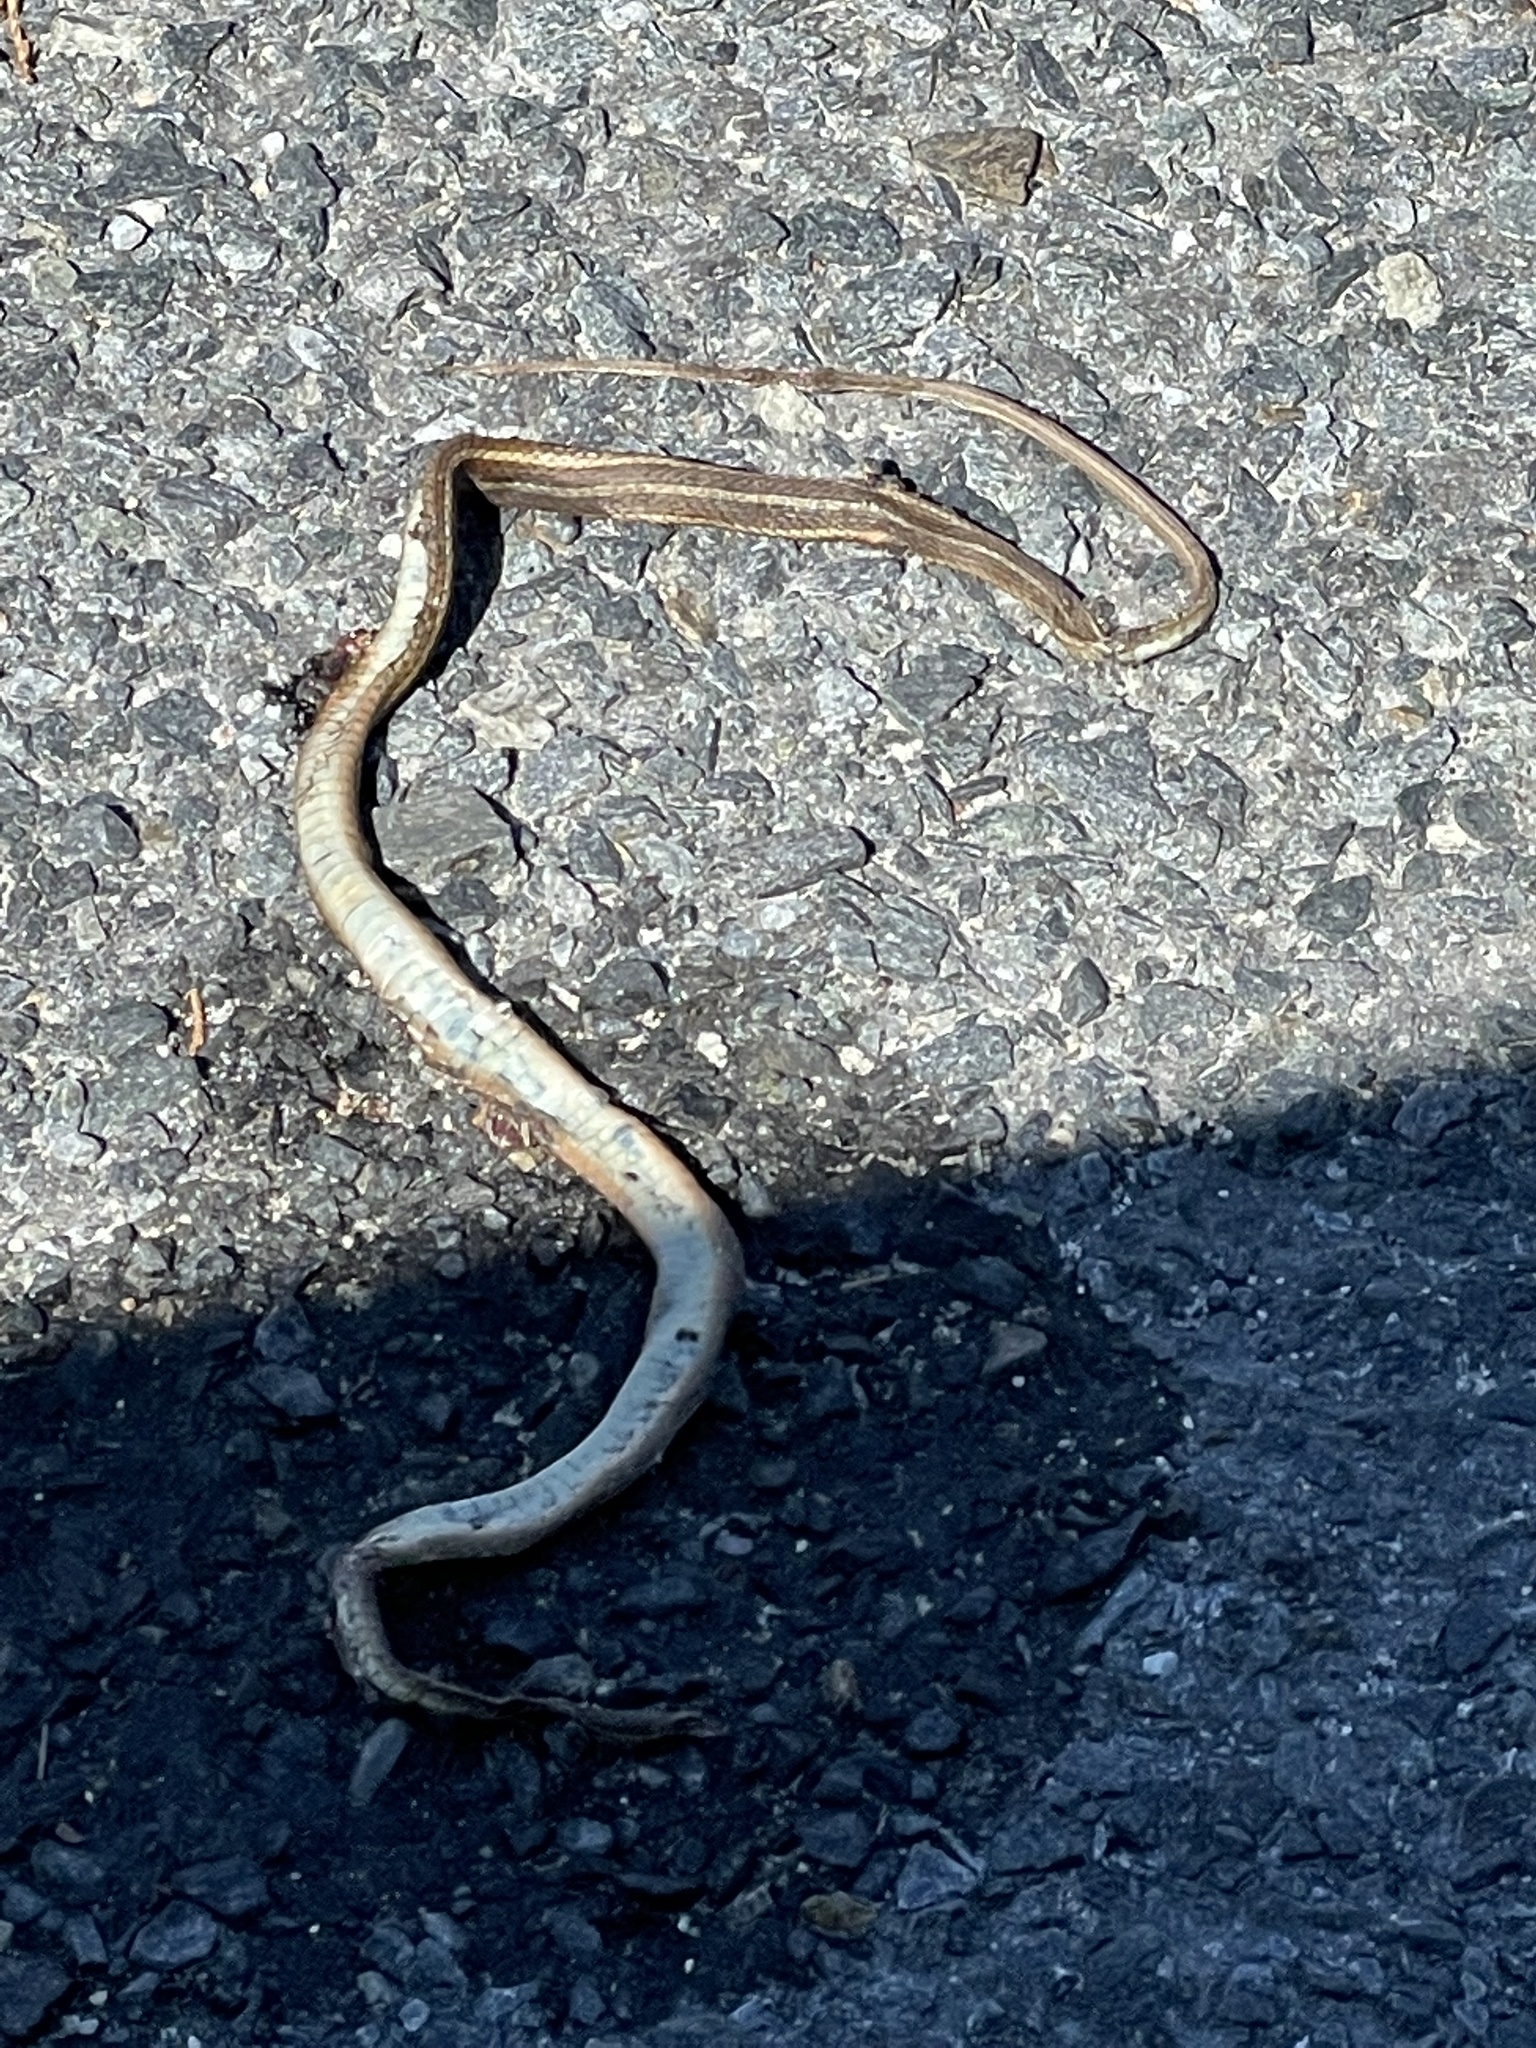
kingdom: Animalia
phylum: Chordata
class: Squamata
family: Colubridae
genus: Thamnophis
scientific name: Thamnophis saurita
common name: Eastern ribbonsnake
